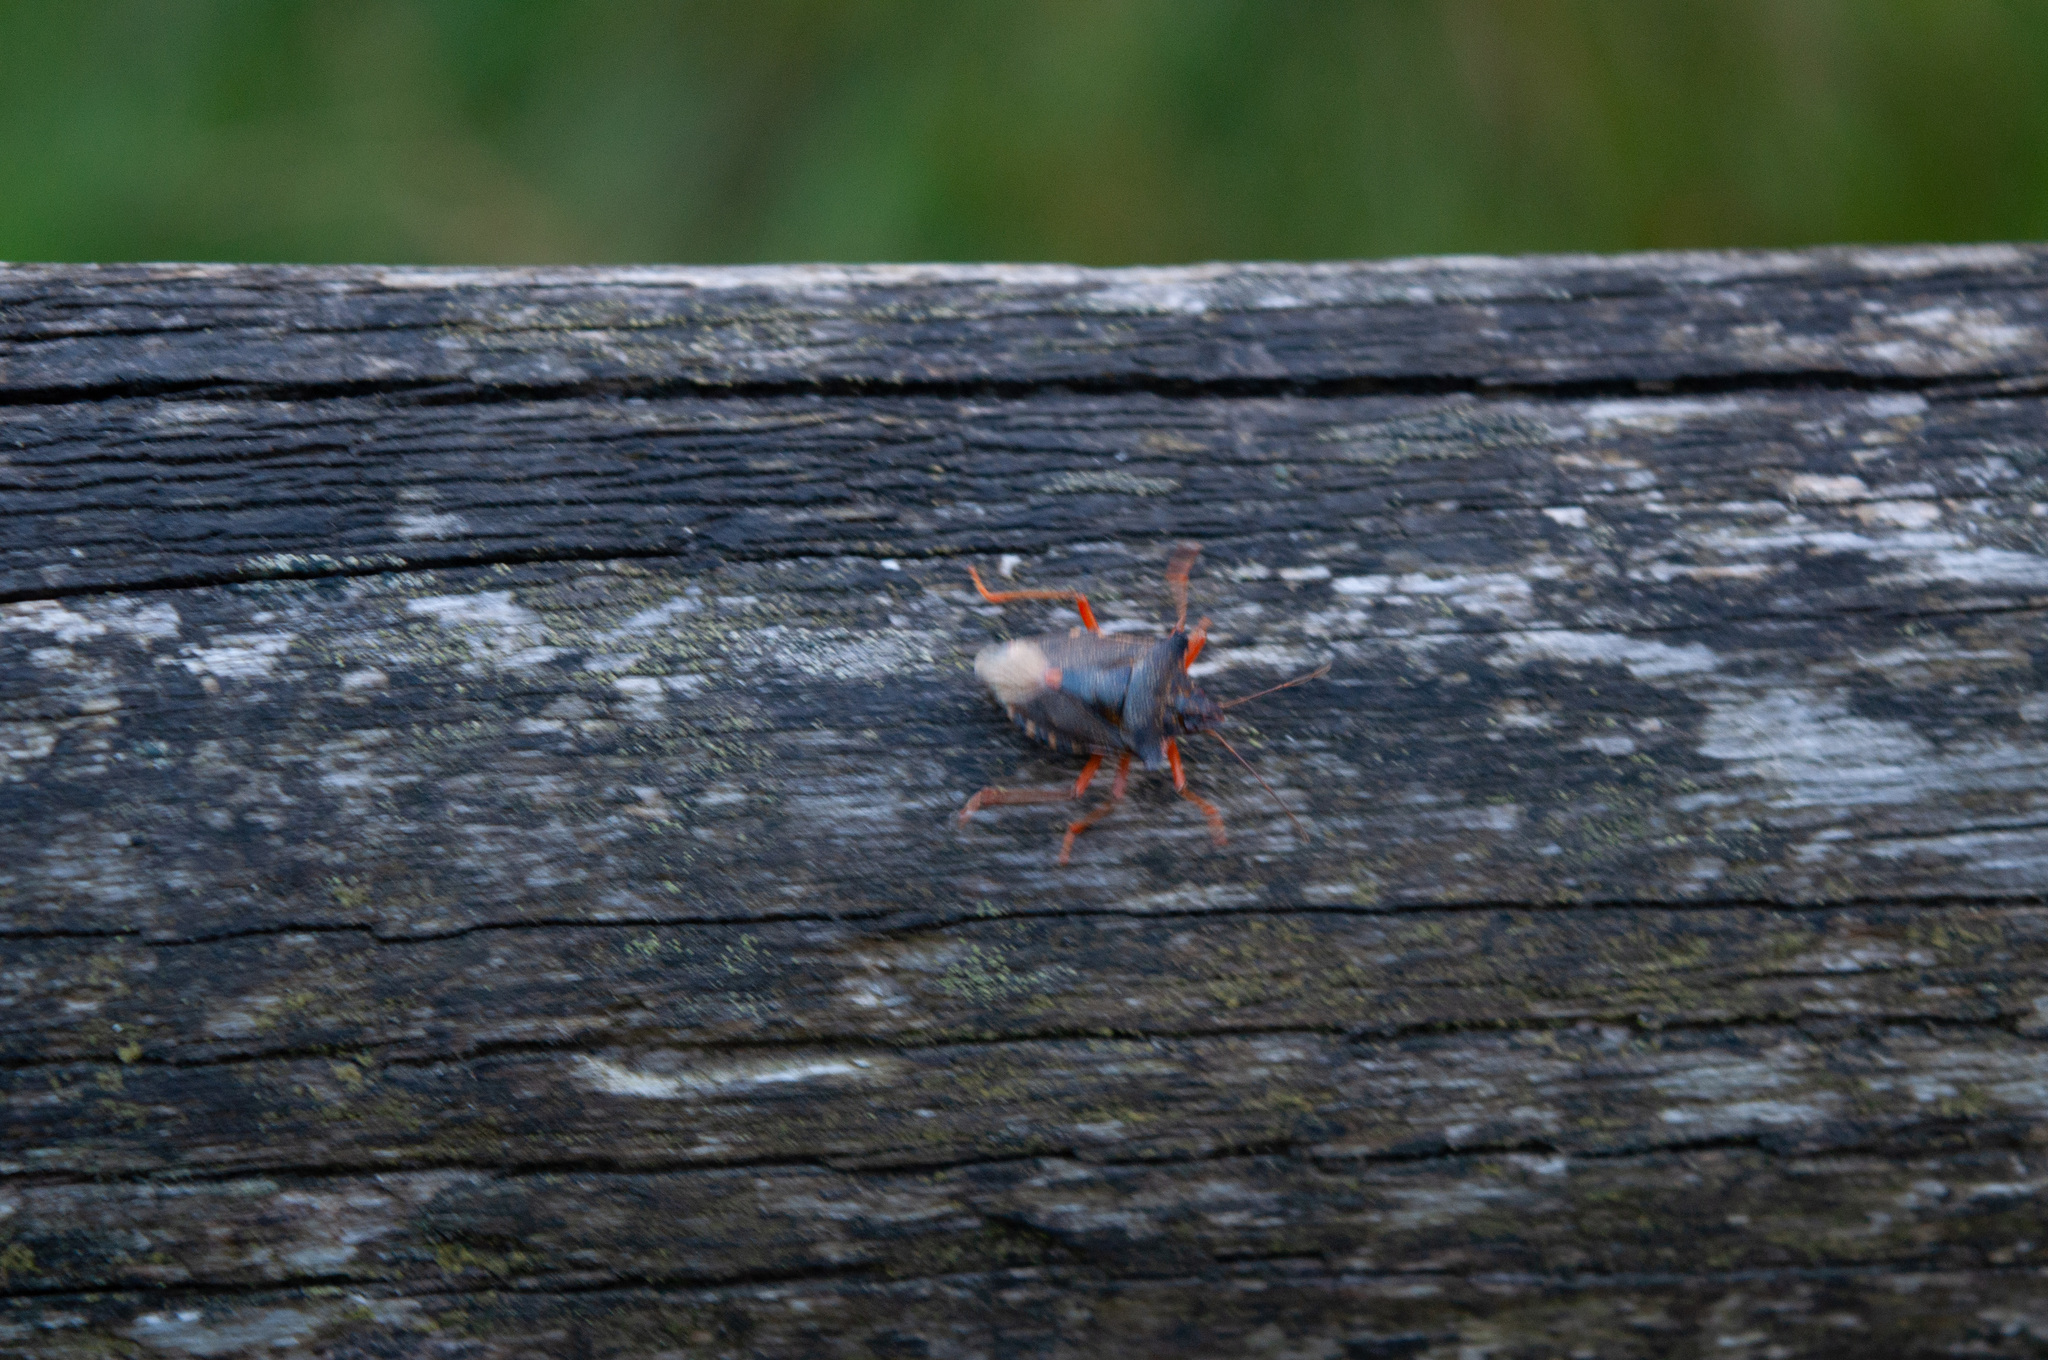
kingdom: Animalia
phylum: Arthropoda
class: Insecta
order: Hemiptera
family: Pentatomidae
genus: Pentatoma
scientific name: Pentatoma rufipes
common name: Forest bug
